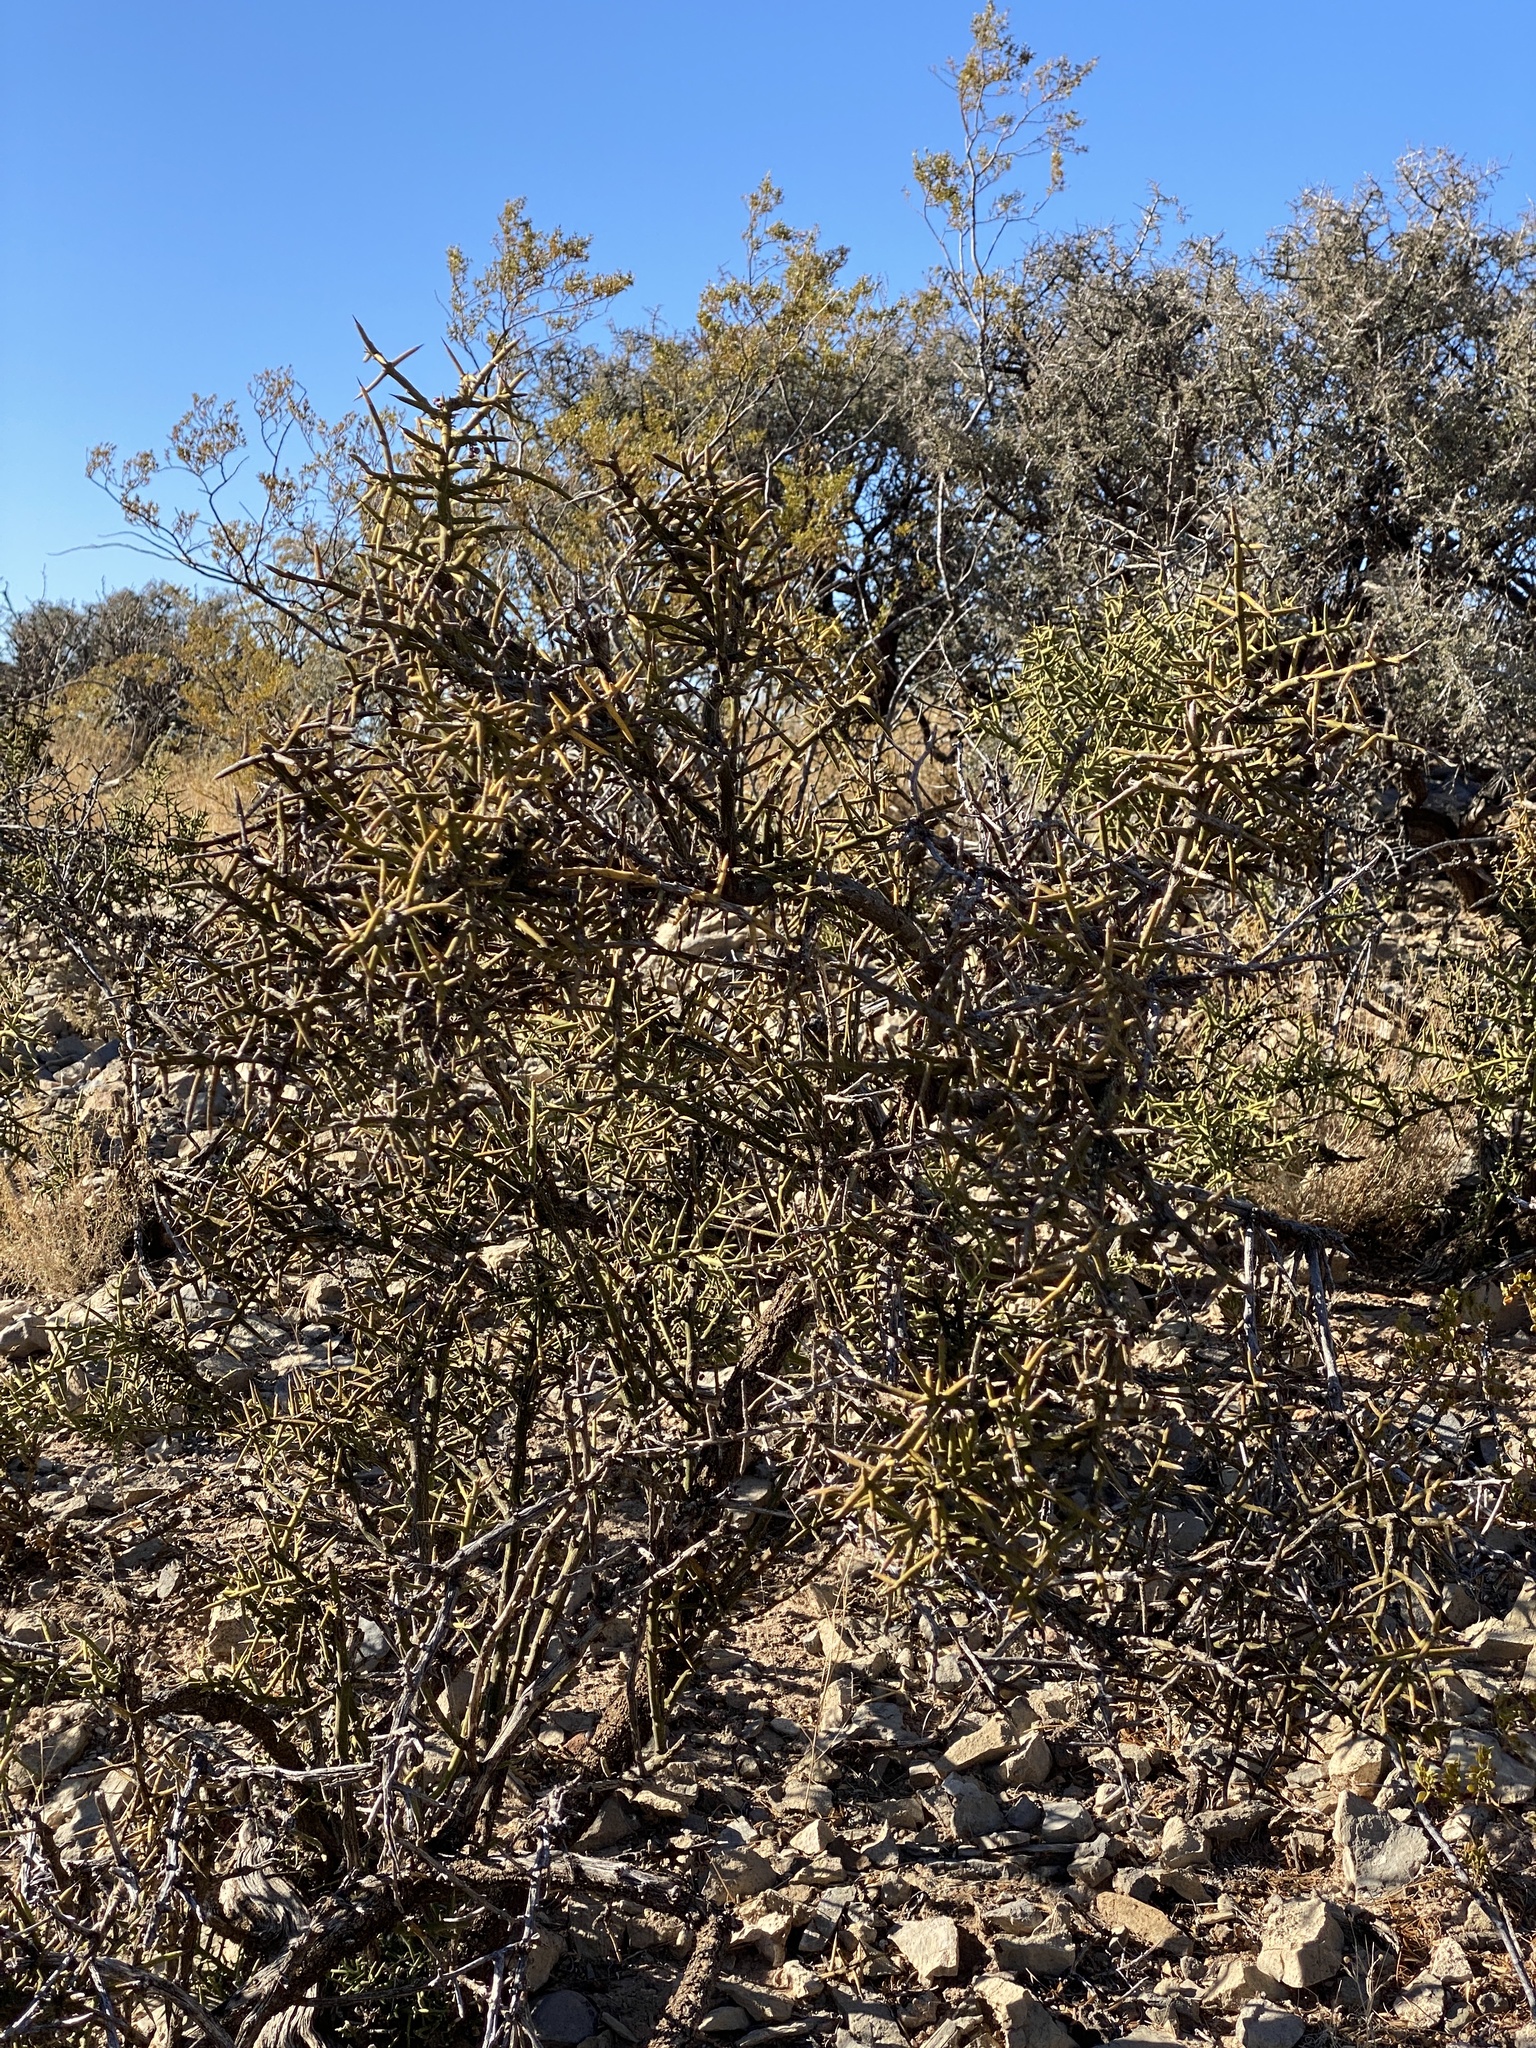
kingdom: Plantae
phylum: Tracheophyta
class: Magnoliopsida
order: Brassicales
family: Koeberliniaceae
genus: Koeberlinia
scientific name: Koeberlinia spinosa
